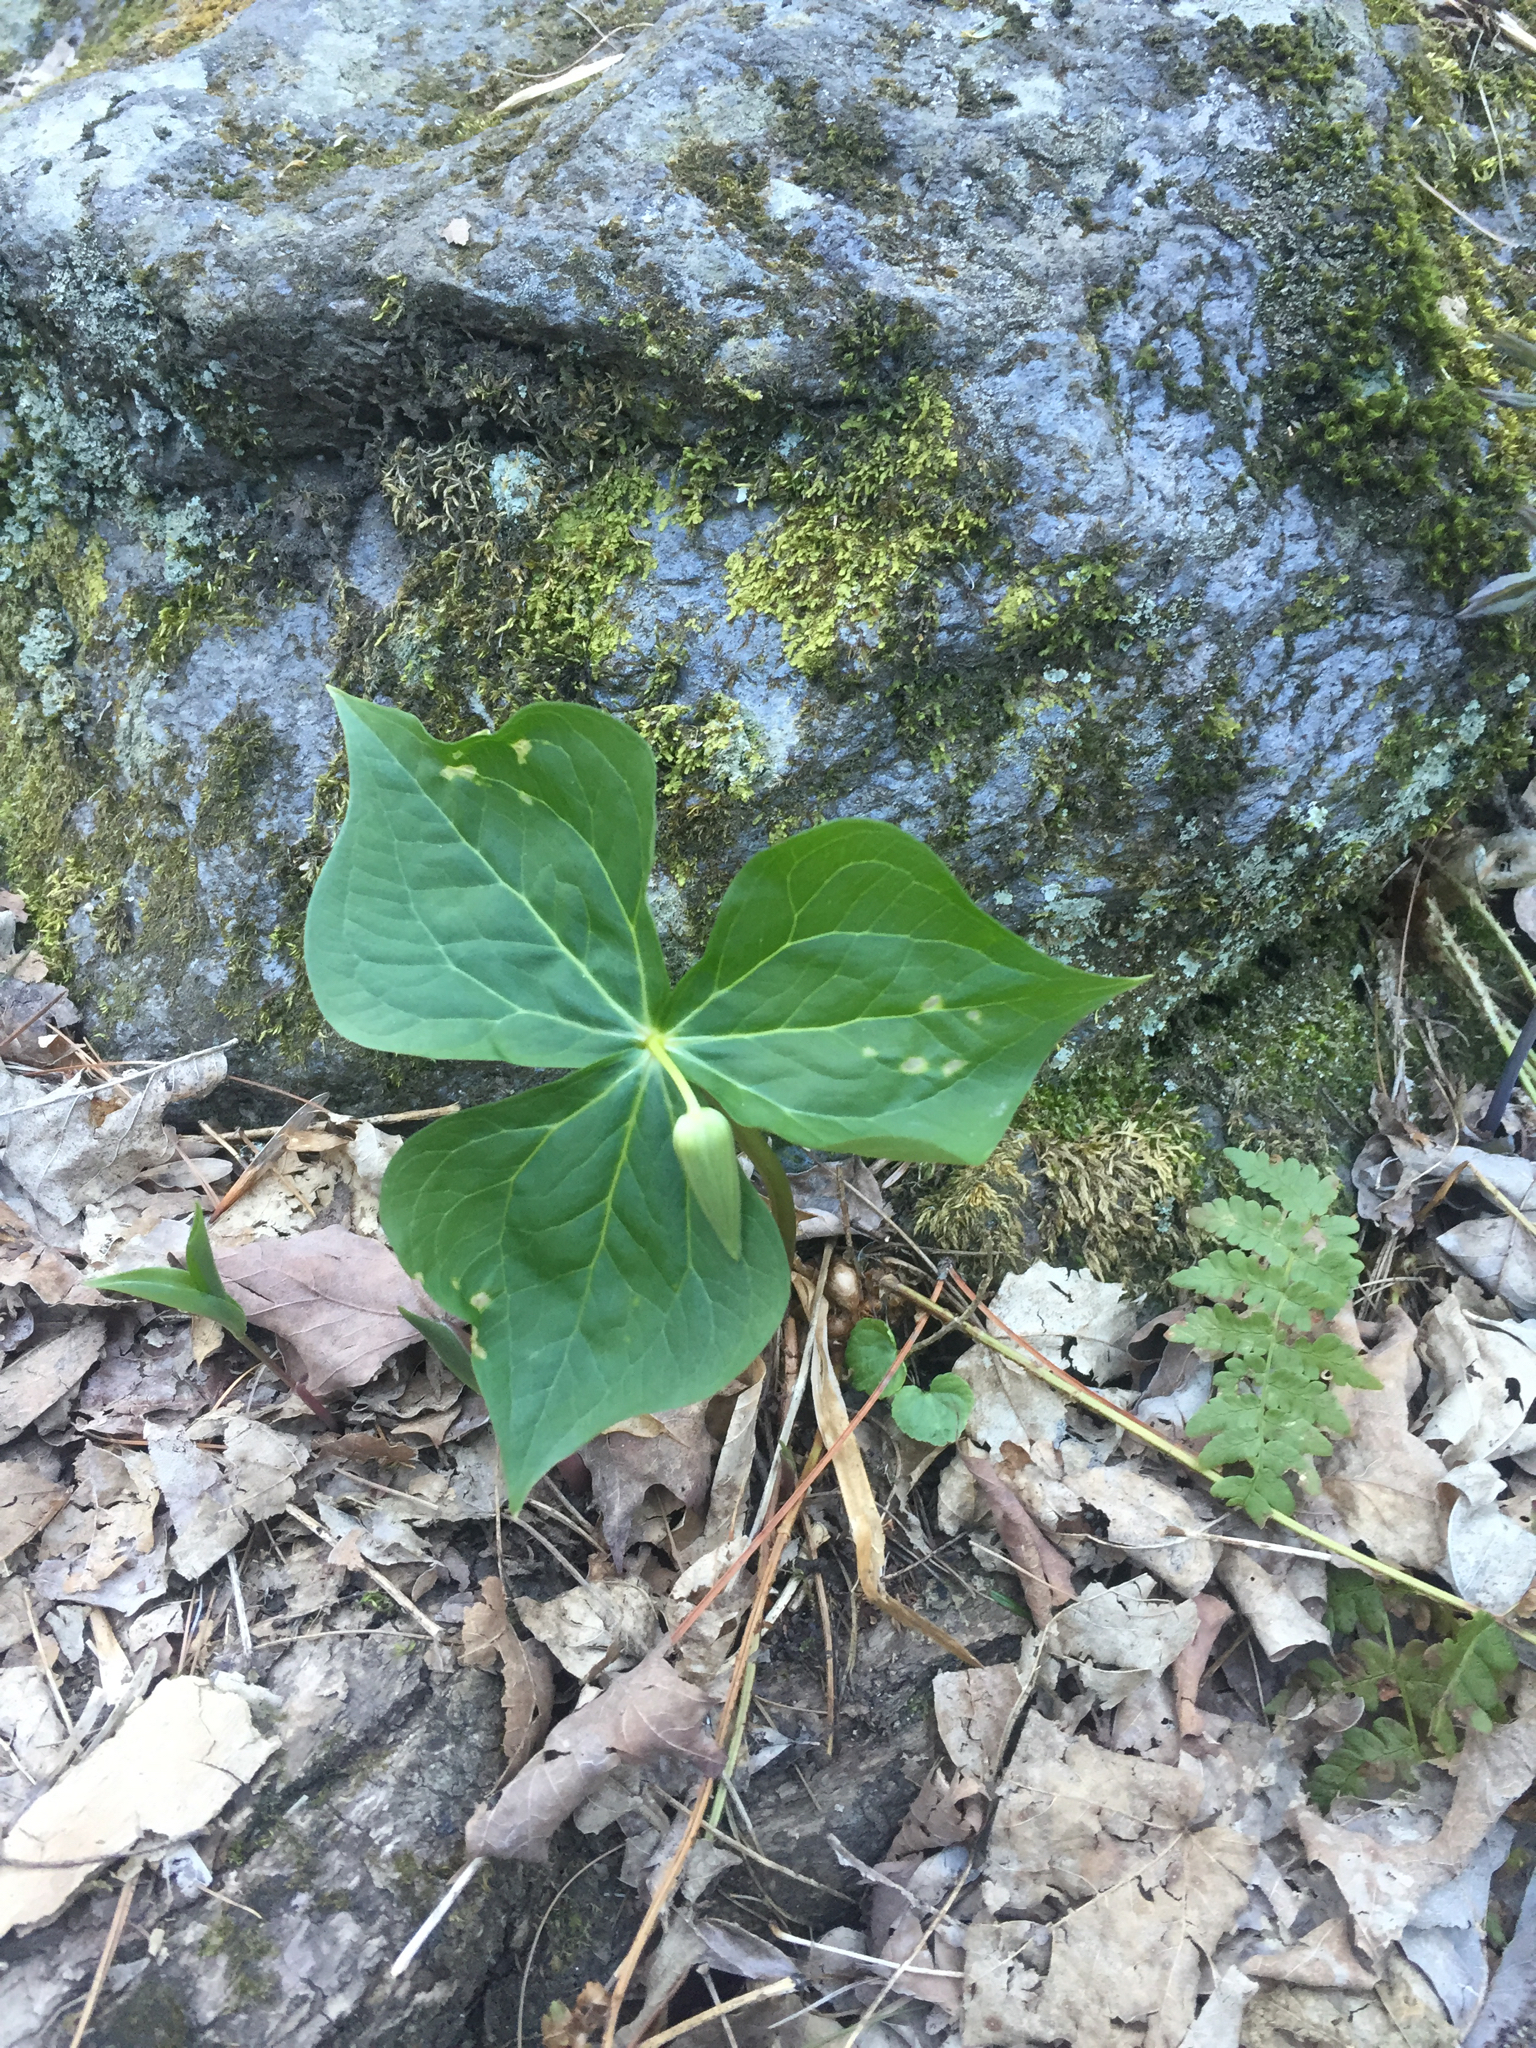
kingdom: Plantae
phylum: Tracheophyta
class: Liliopsida
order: Liliales
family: Melanthiaceae
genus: Trillium
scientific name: Trillium erectum
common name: Purple trillium
